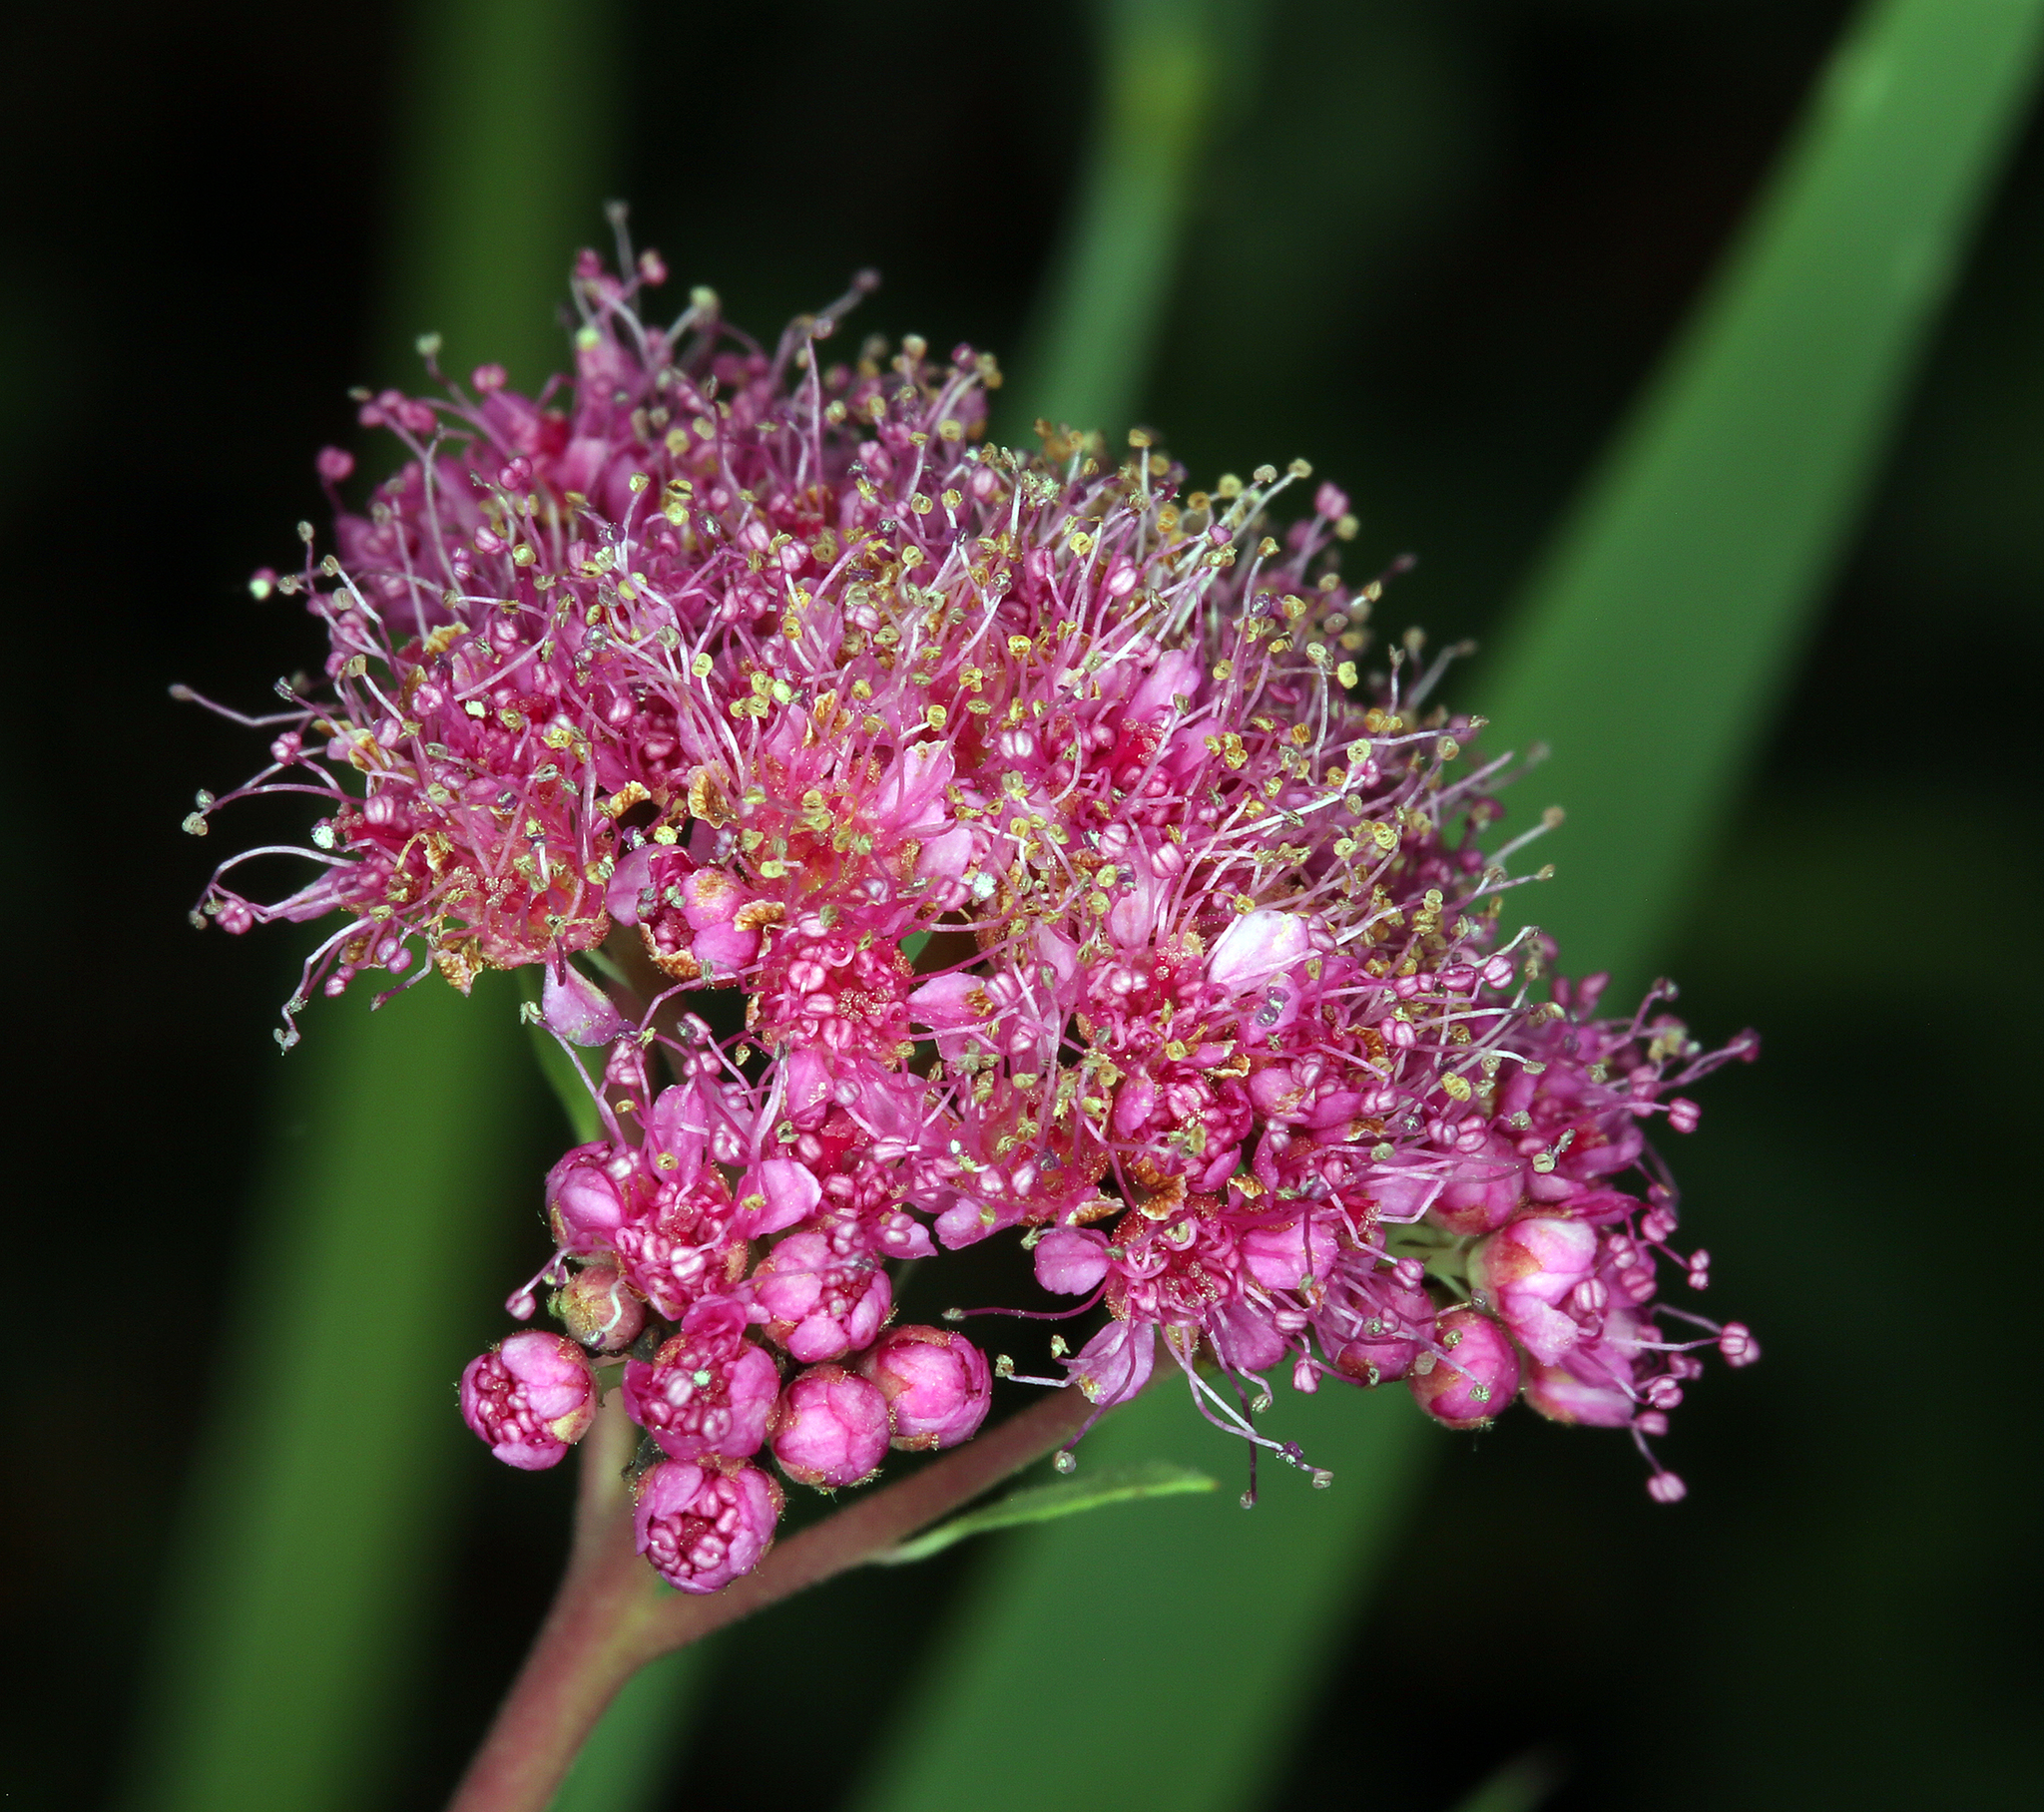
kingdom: Plantae
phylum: Tracheophyta
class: Magnoliopsida
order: Rosales
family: Rosaceae
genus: Spiraea
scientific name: Spiraea splendens
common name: Subalpine meadowsweet
